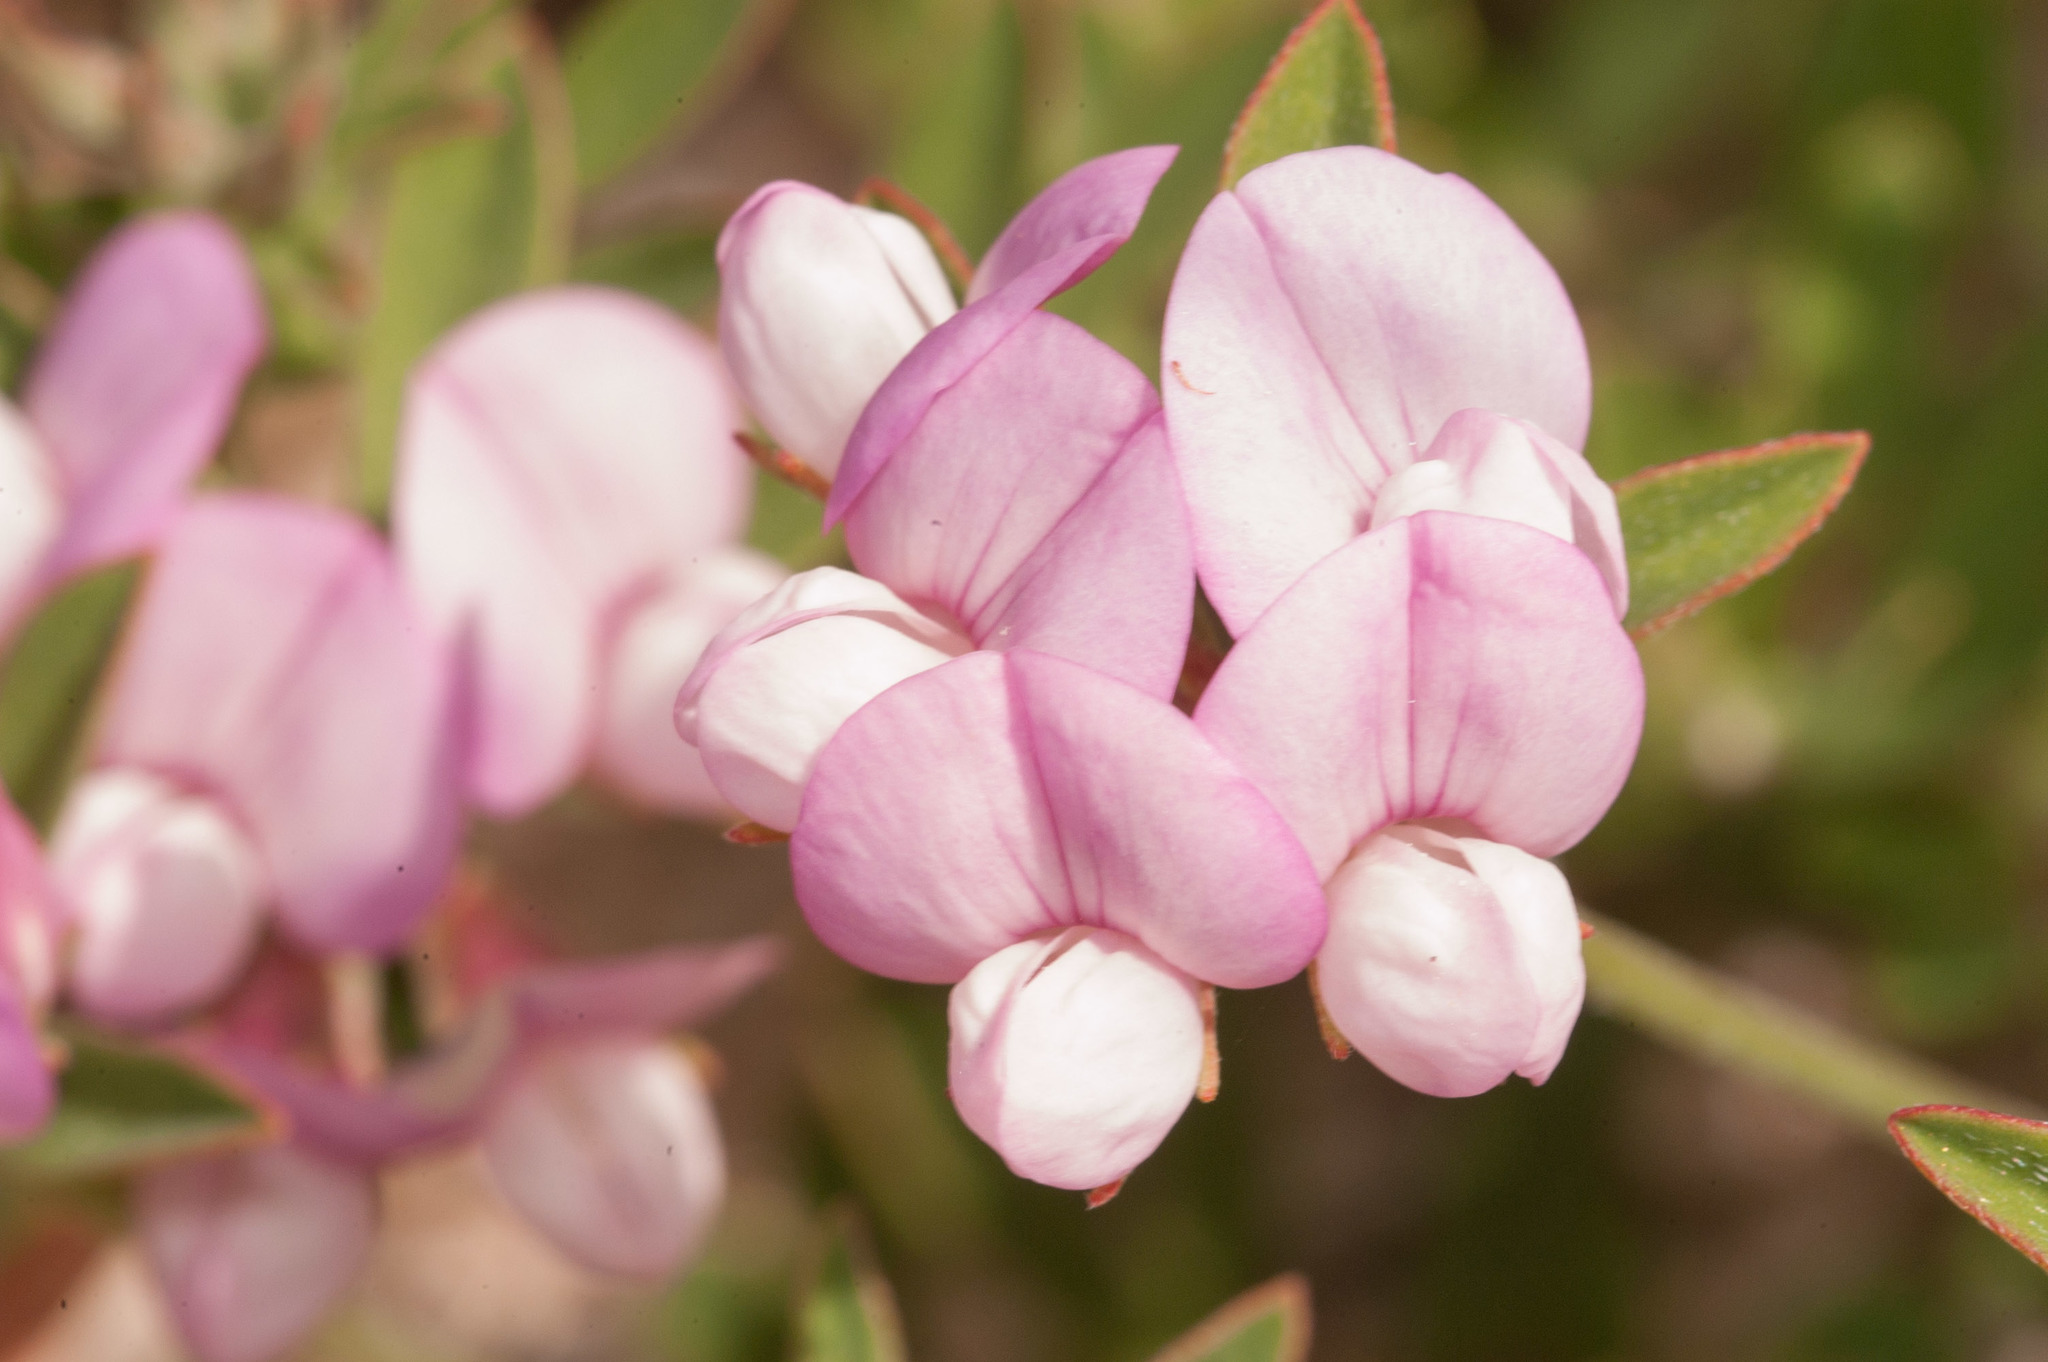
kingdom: Plantae
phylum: Tracheophyta
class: Magnoliopsida
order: Fabales
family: Fabaceae
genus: Lotus
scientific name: Lotus australis
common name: Australian trefoil
